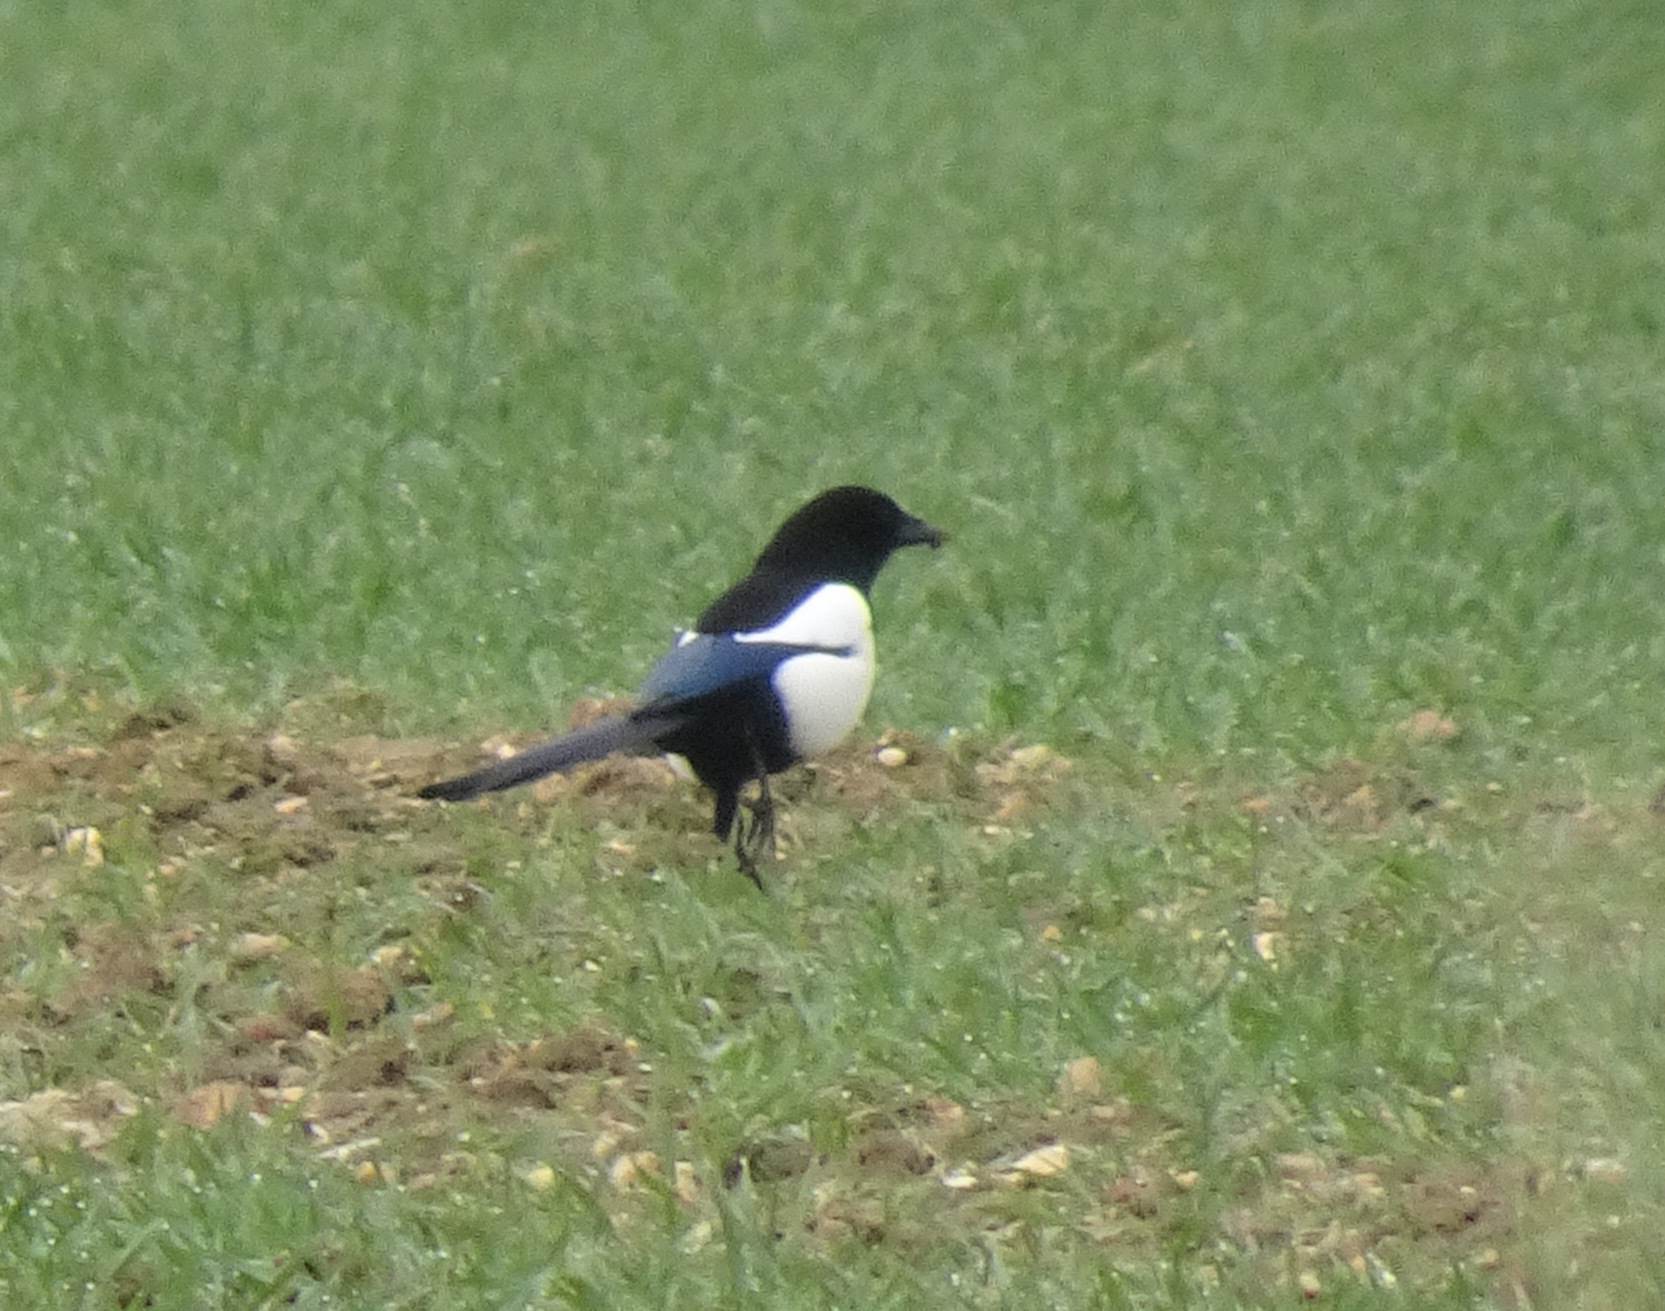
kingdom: Animalia
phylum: Chordata
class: Aves
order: Passeriformes
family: Corvidae
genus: Pica
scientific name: Pica pica
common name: Eurasian magpie
